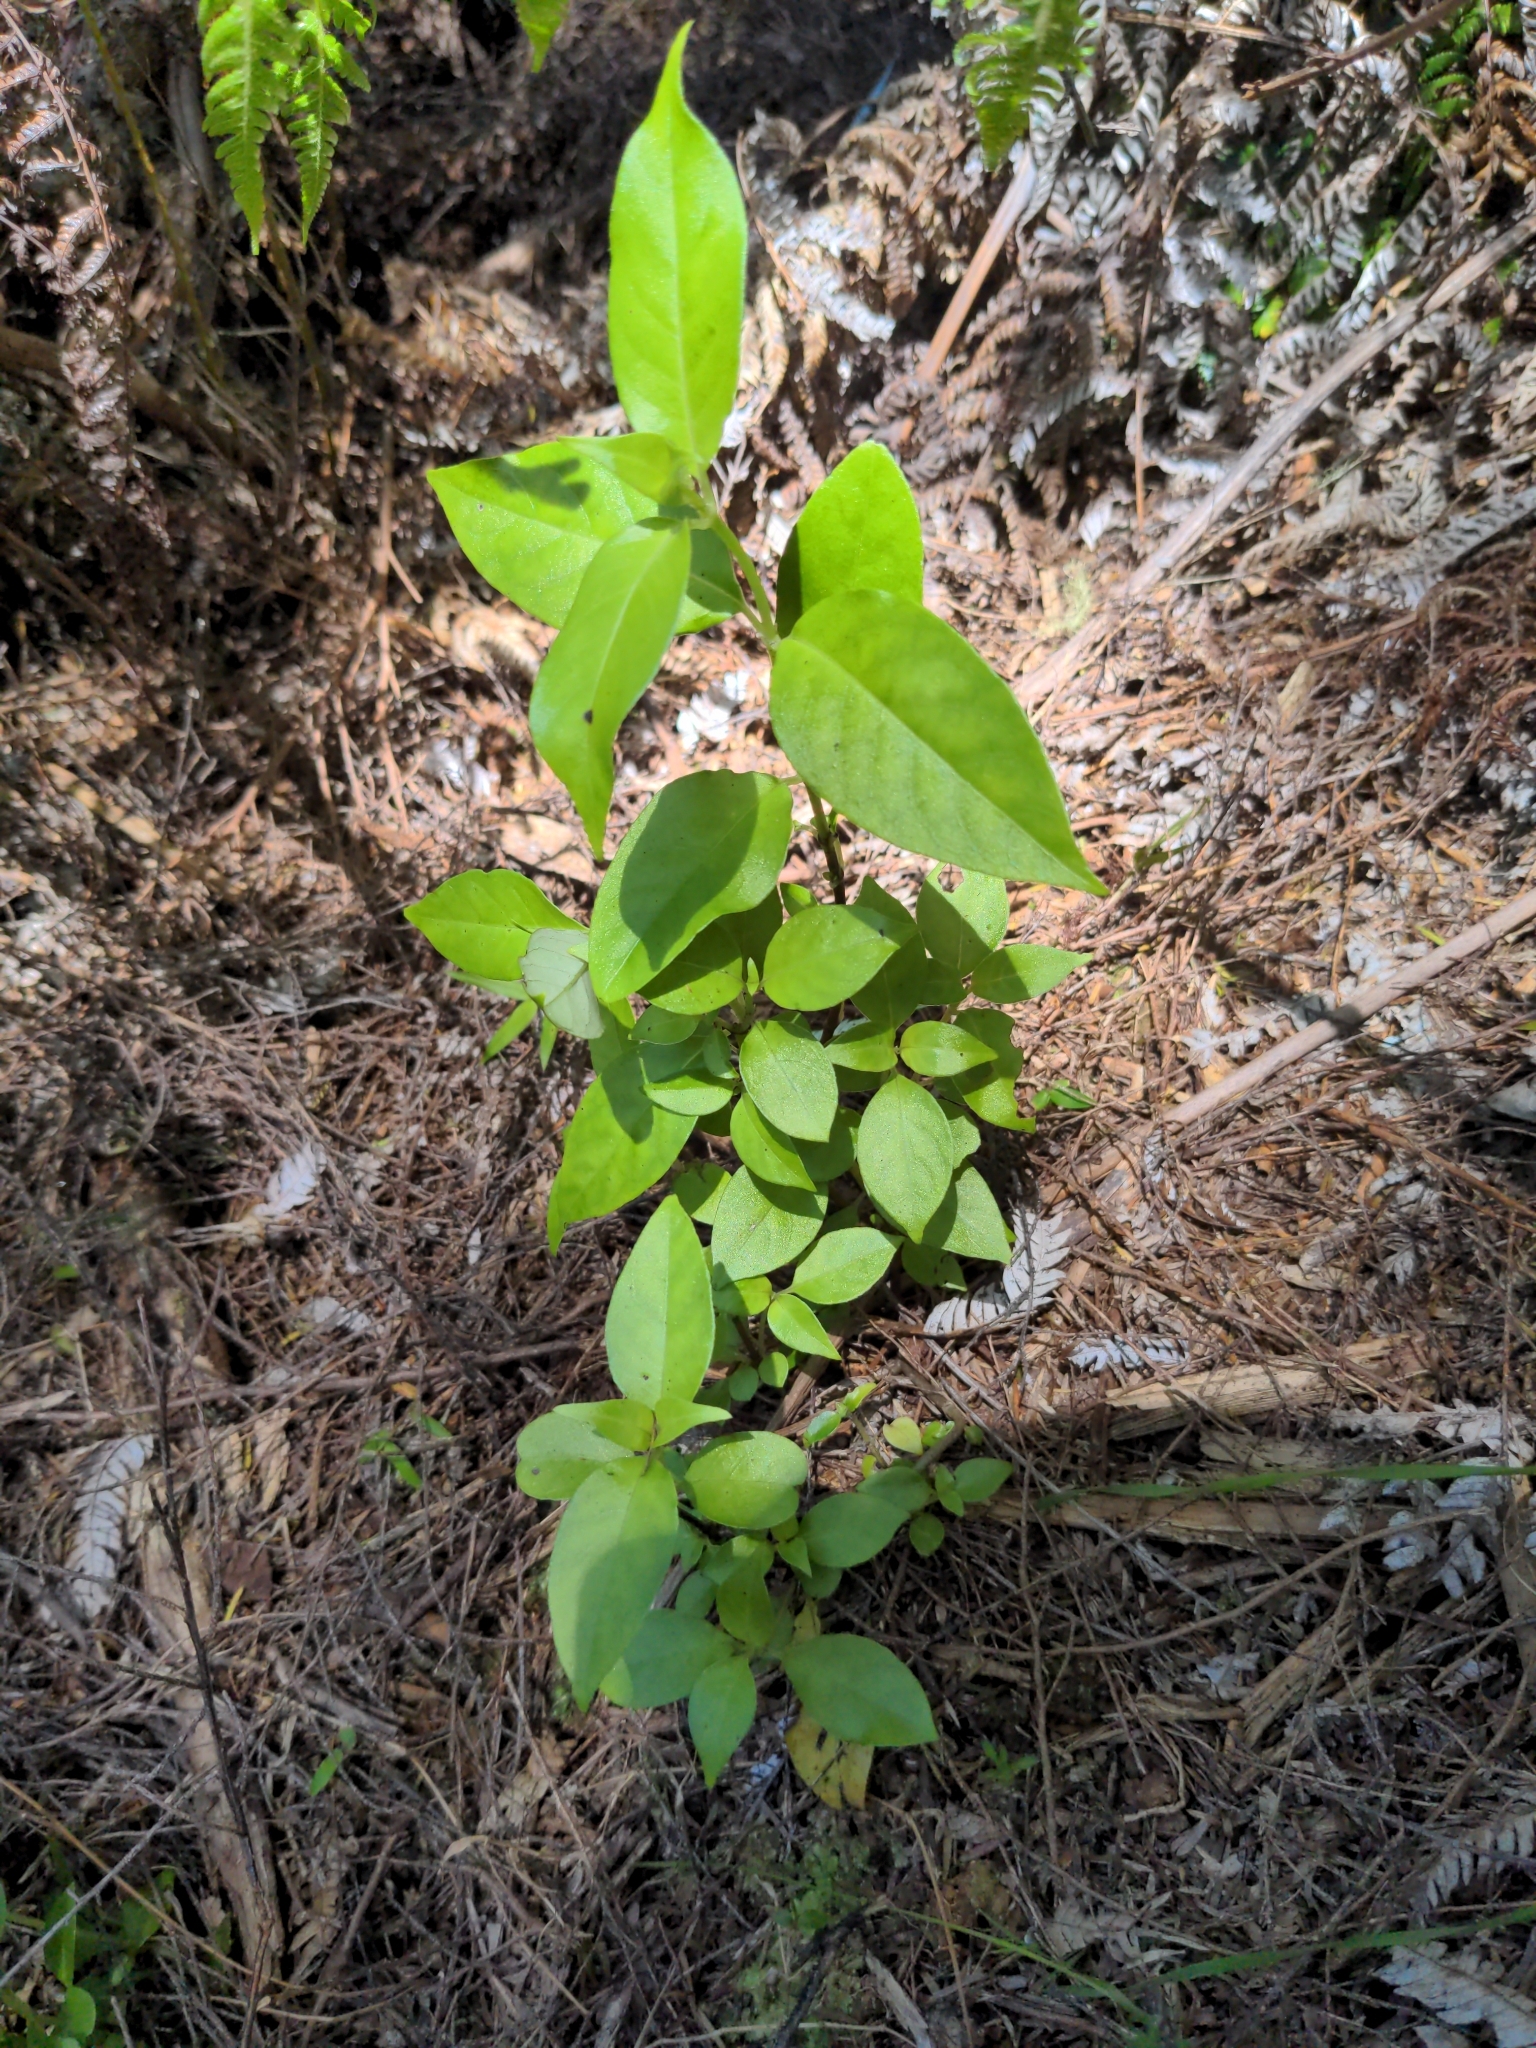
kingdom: Plantae
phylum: Tracheophyta
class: Magnoliopsida
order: Gentianales
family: Loganiaceae
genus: Geniostoma
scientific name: Geniostoma ligustrifolium
